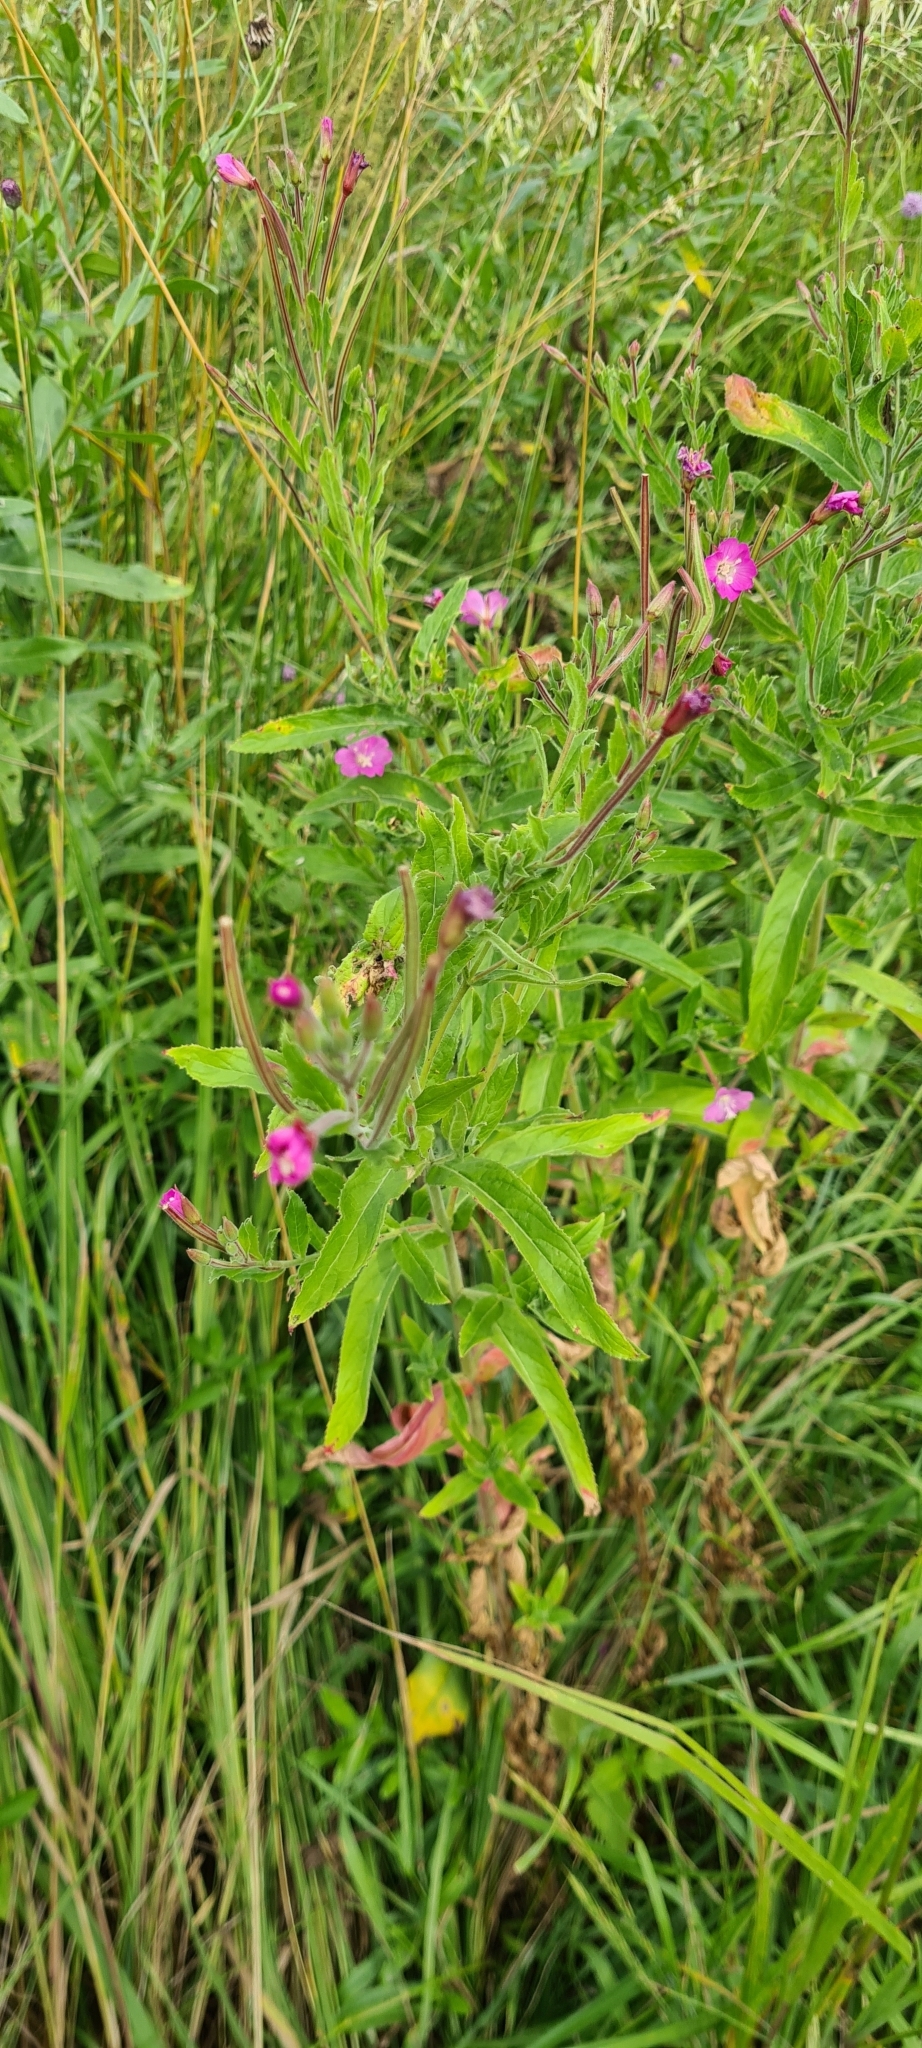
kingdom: Plantae
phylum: Tracheophyta
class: Magnoliopsida
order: Myrtales
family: Onagraceae
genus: Epilobium
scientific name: Epilobium hirsutum
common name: Great willowherb
